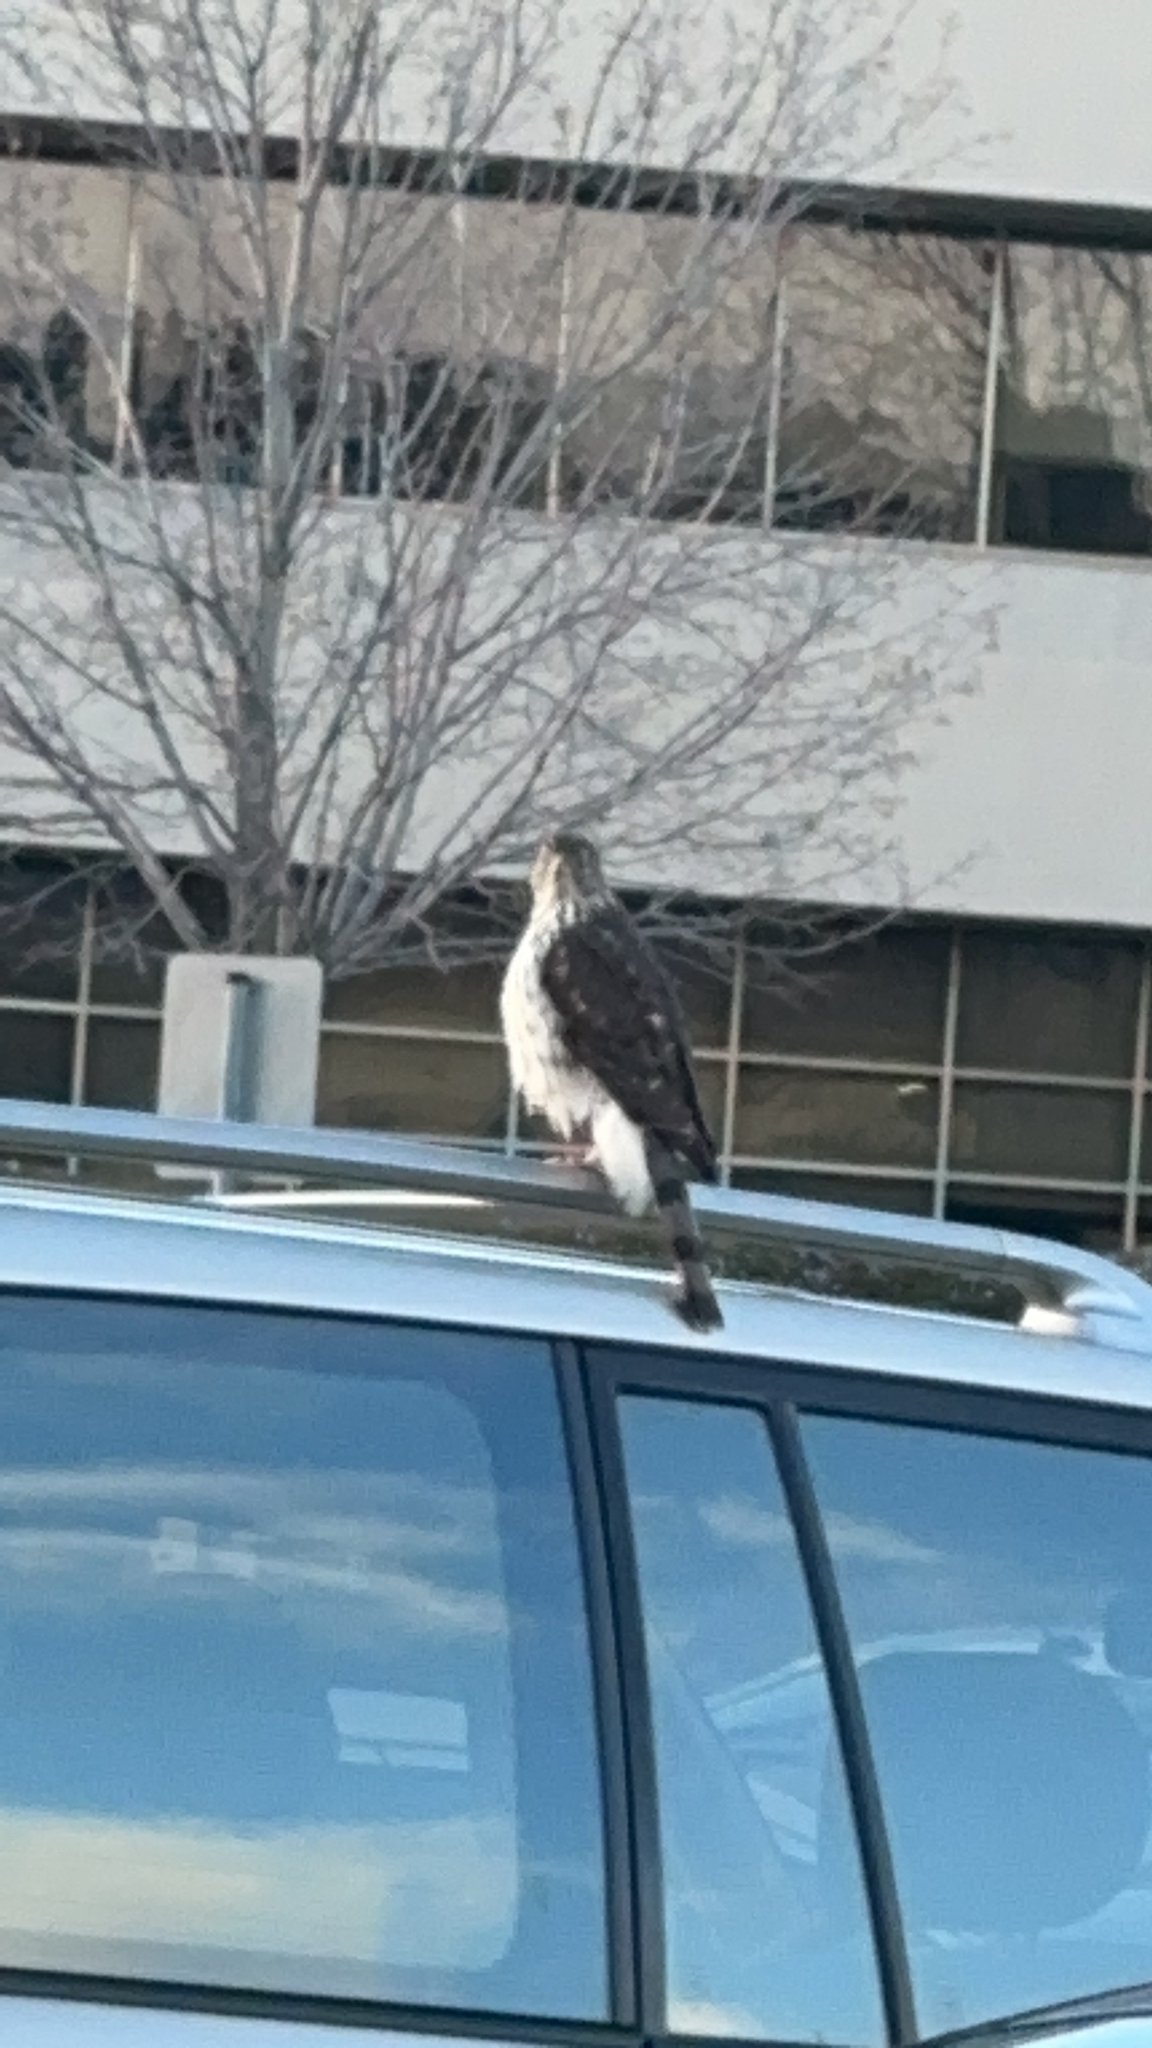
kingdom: Animalia
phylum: Chordata
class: Aves
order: Accipitriformes
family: Accipitridae
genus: Accipiter
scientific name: Accipiter cooperii
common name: Cooper's hawk
